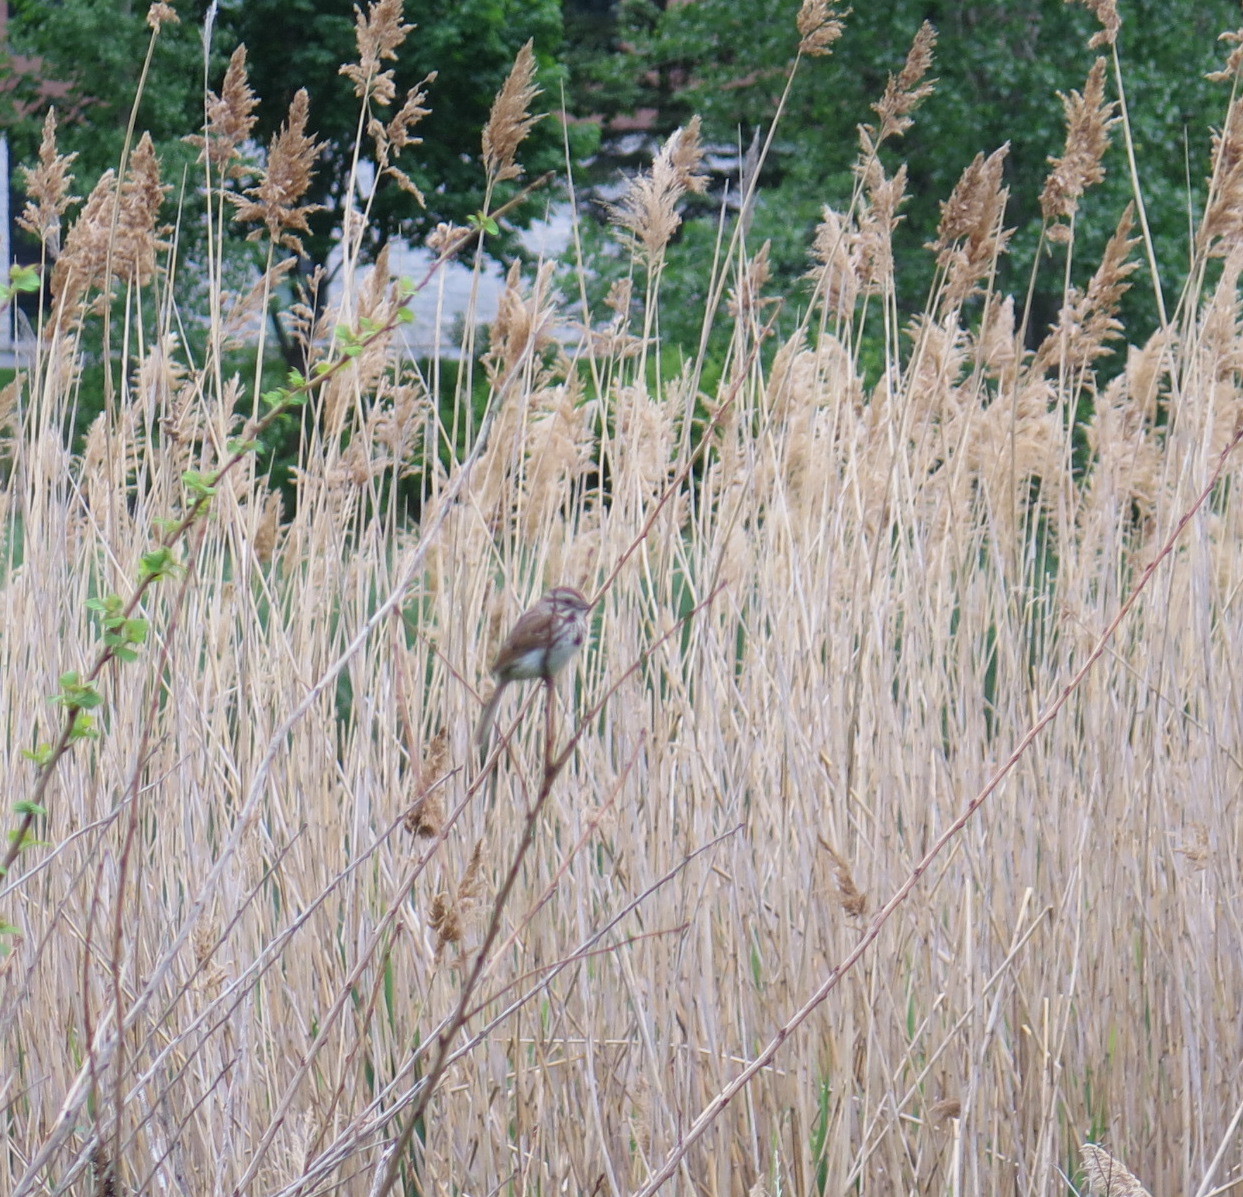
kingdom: Animalia
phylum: Chordata
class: Aves
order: Passeriformes
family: Passerellidae
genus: Melospiza
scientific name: Melospiza melodia
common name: Song sparrow
